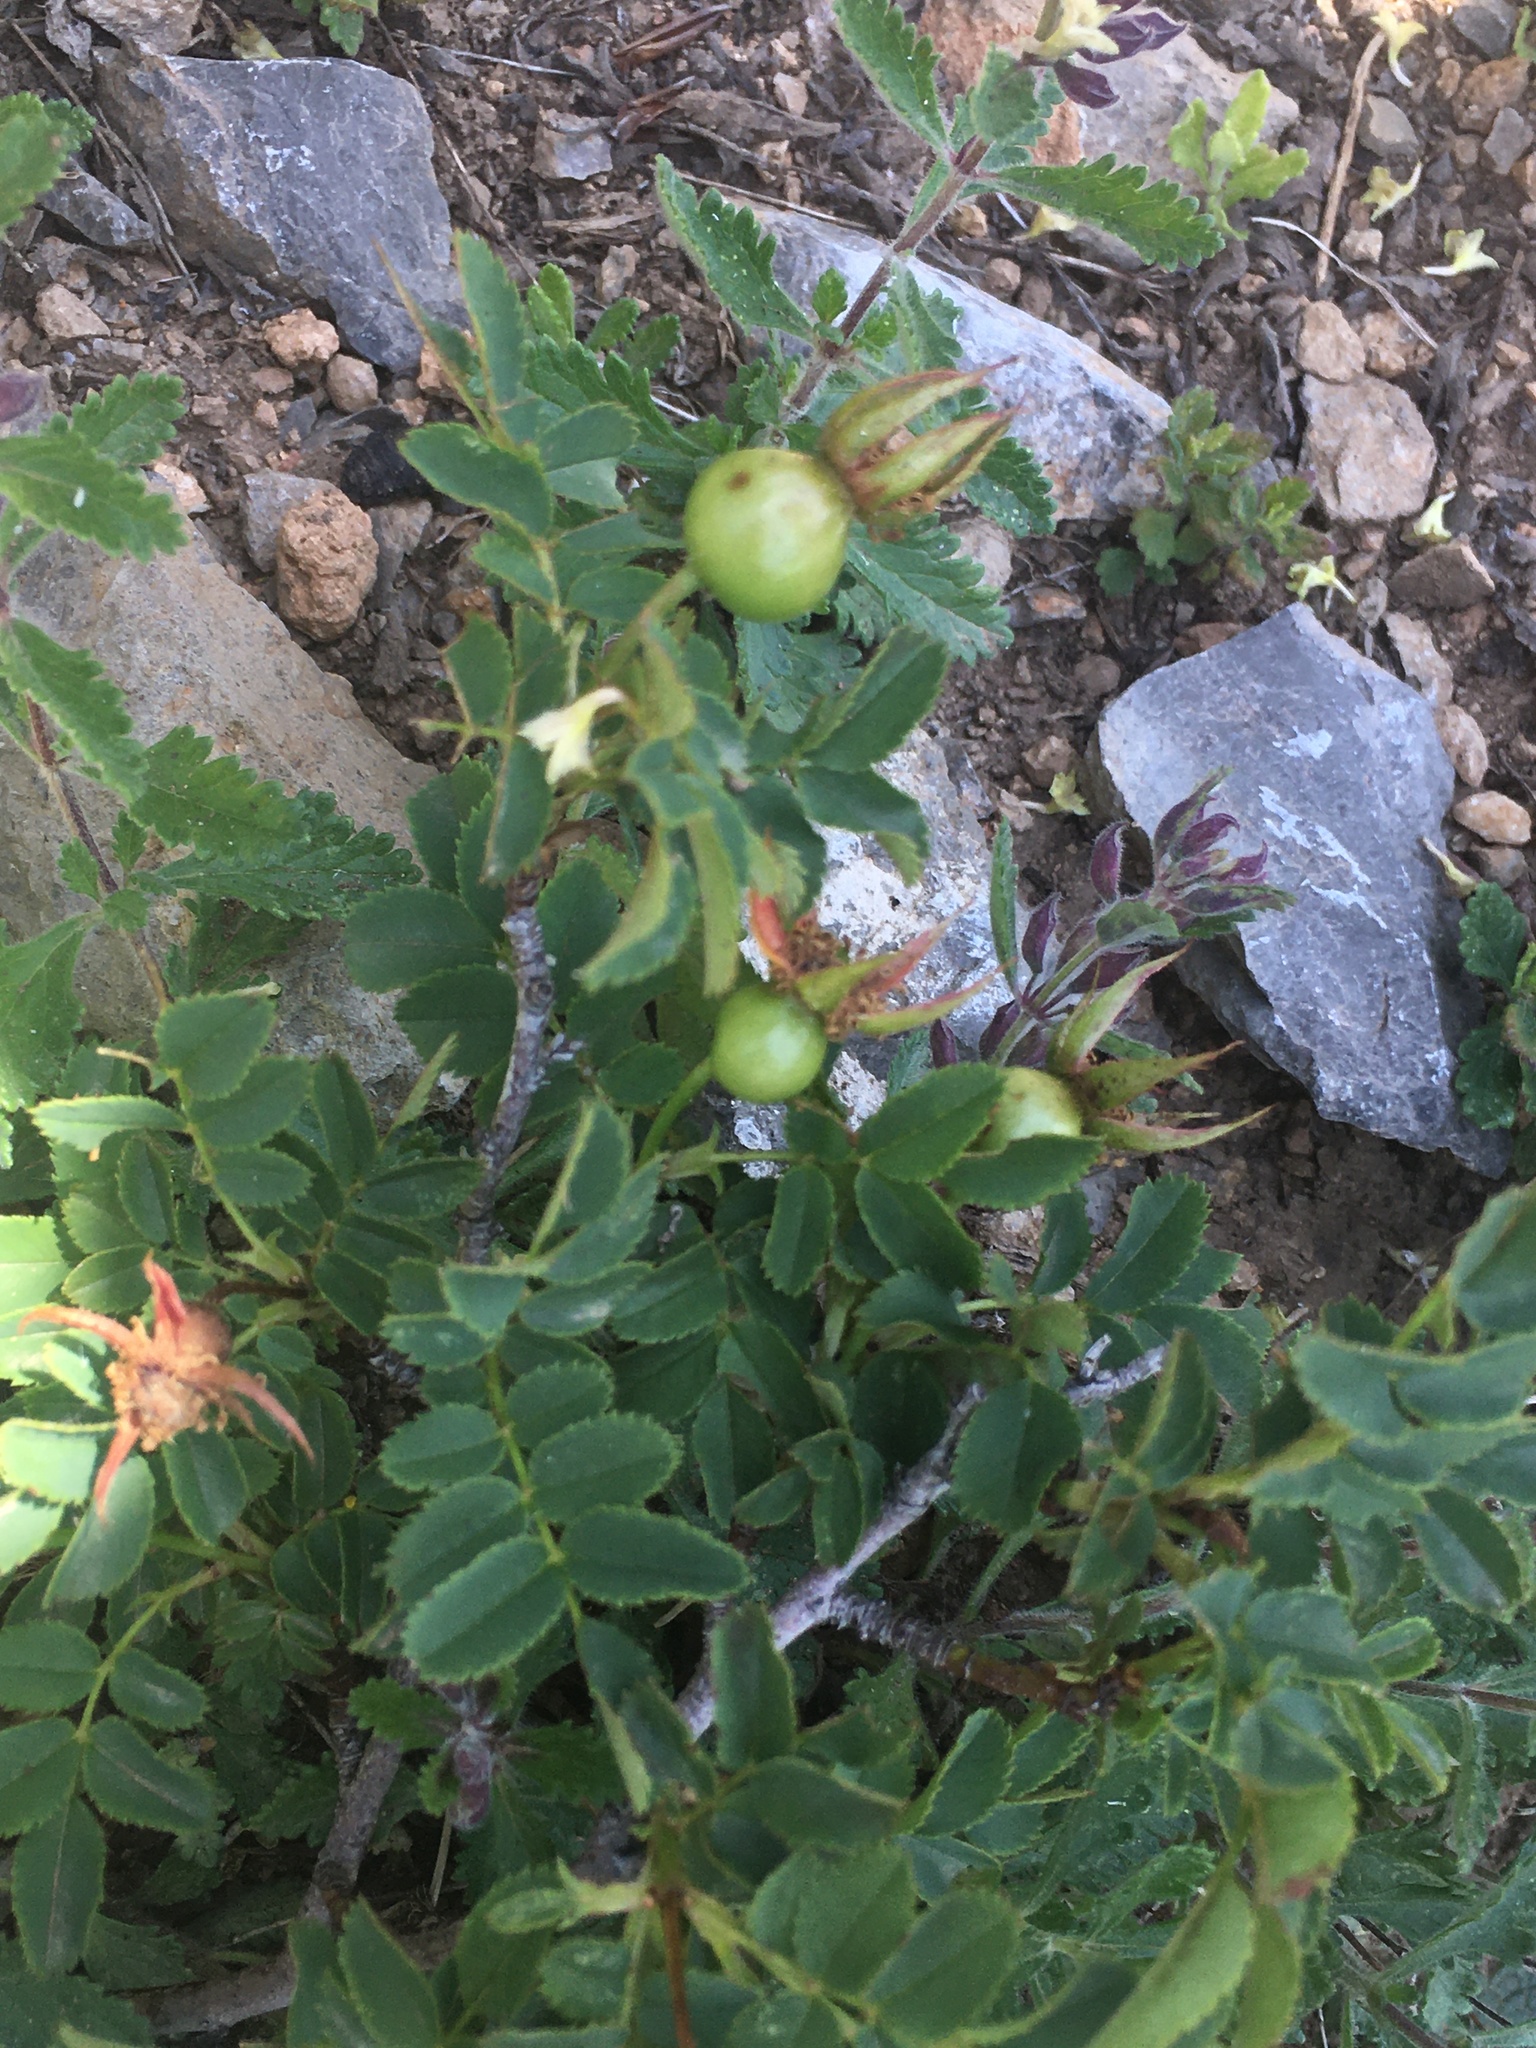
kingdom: Plantae
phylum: Tracheophyta
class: Magnoliopsida
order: Rosales
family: Rosaceae
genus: Rosa
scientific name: Rosa spinosissima
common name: Burnet rose
